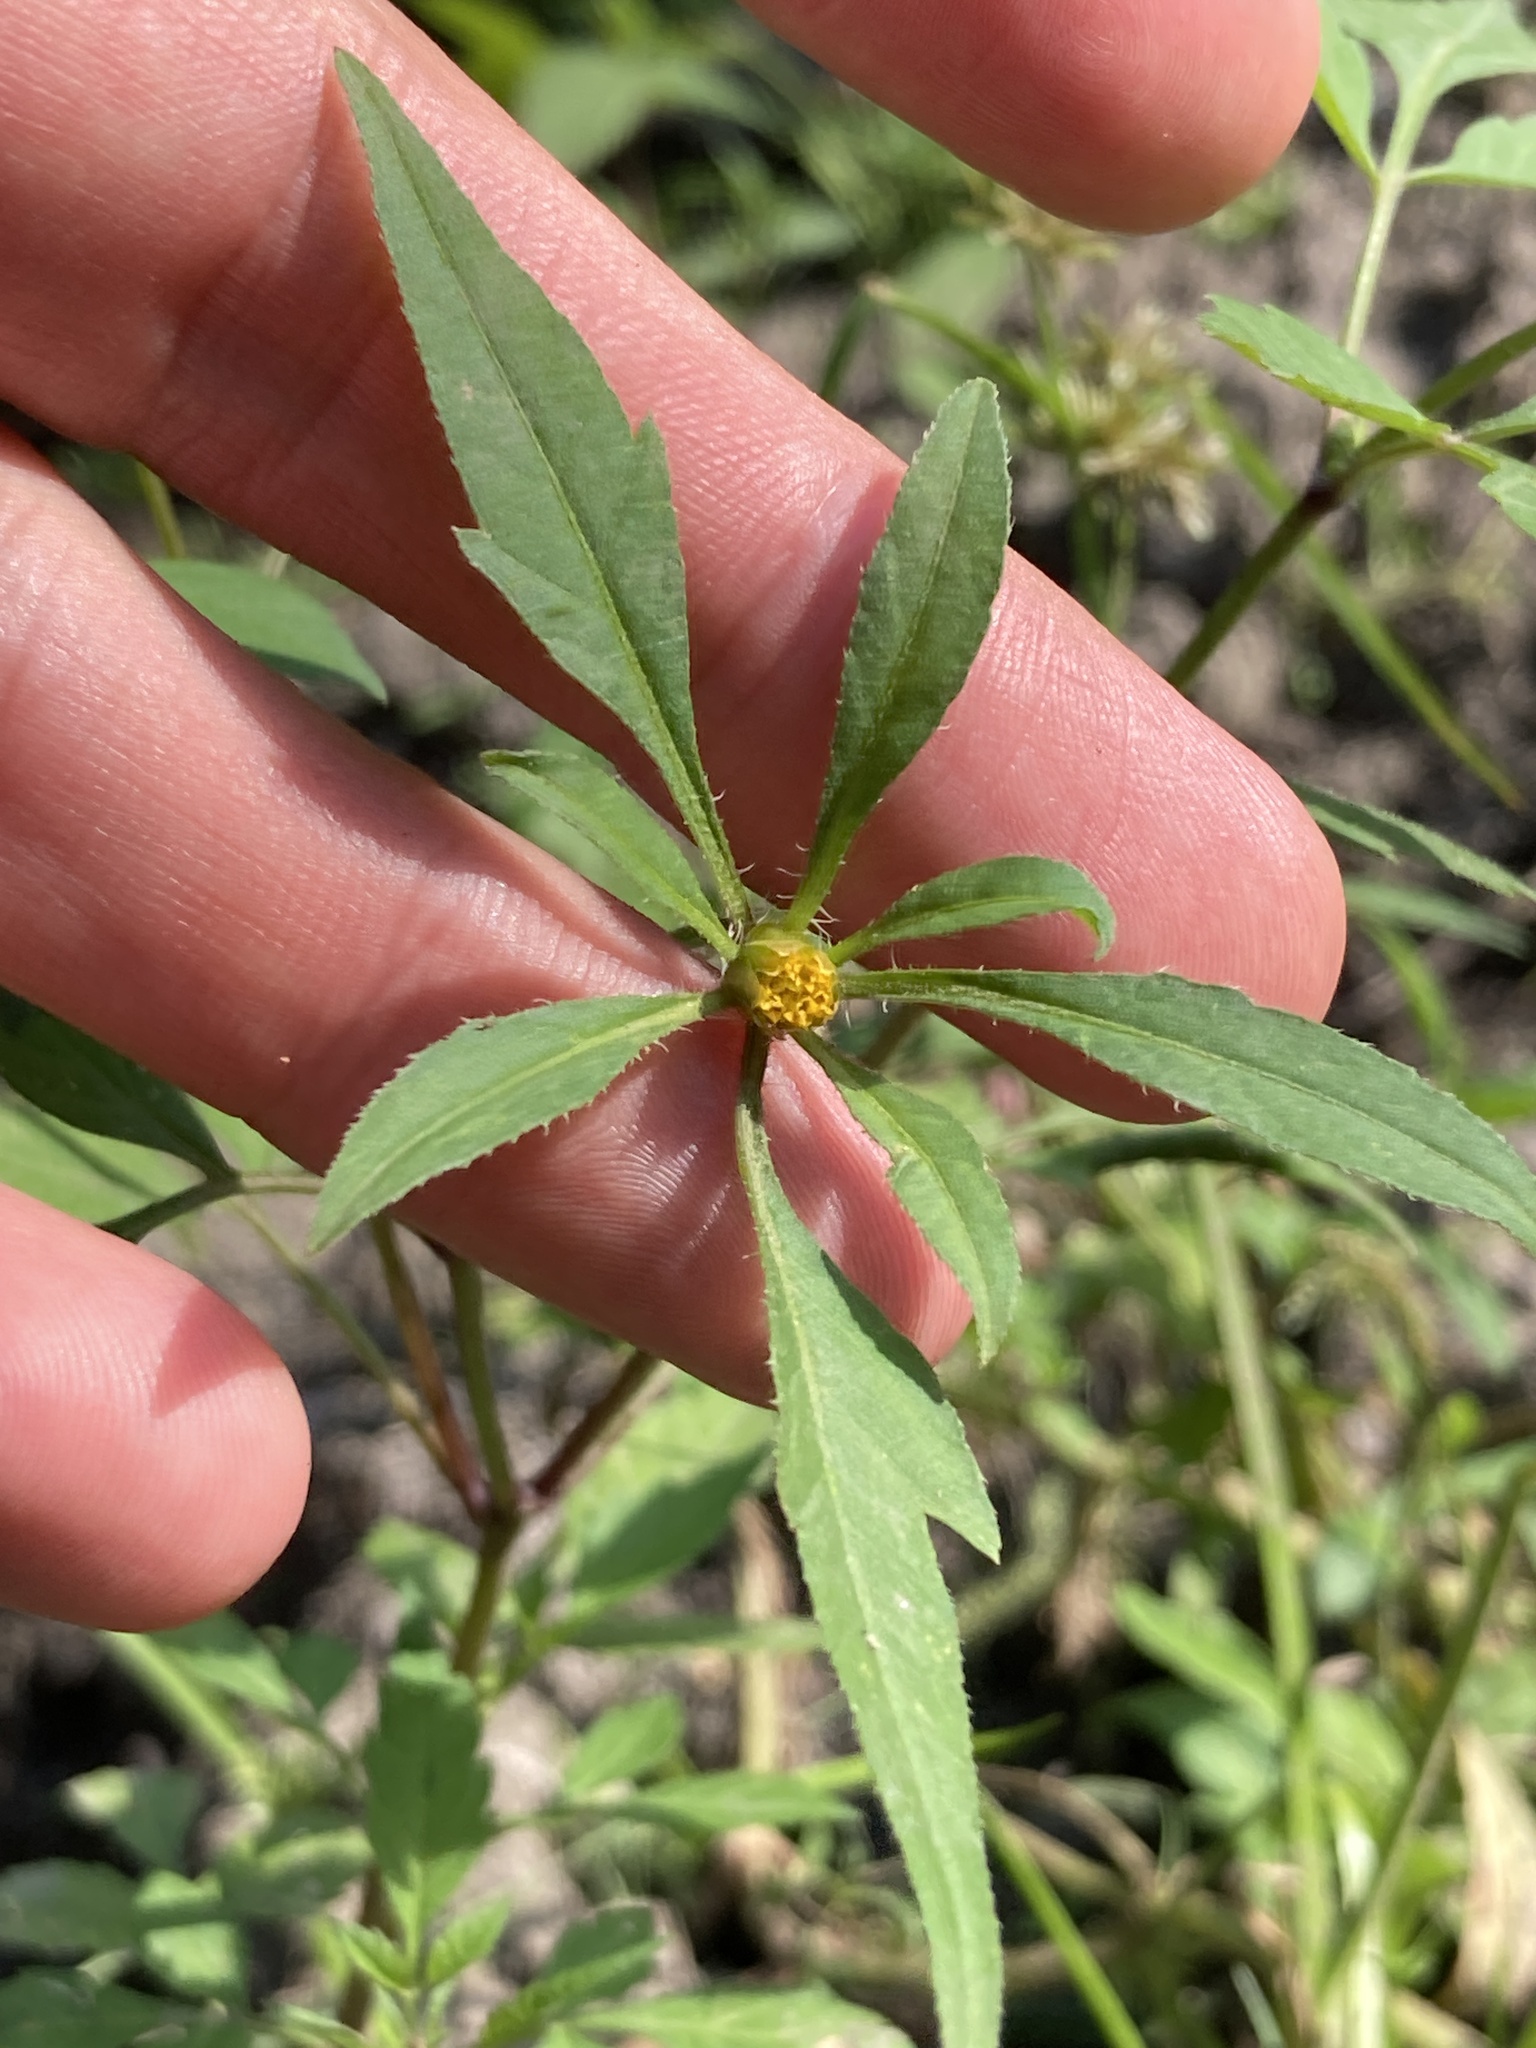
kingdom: Plantae
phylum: Tracheophyta
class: Magnoliopsida
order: Asterales
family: Asteraceae
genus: Bidens
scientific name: Bidens frondosa
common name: Beggarticks
